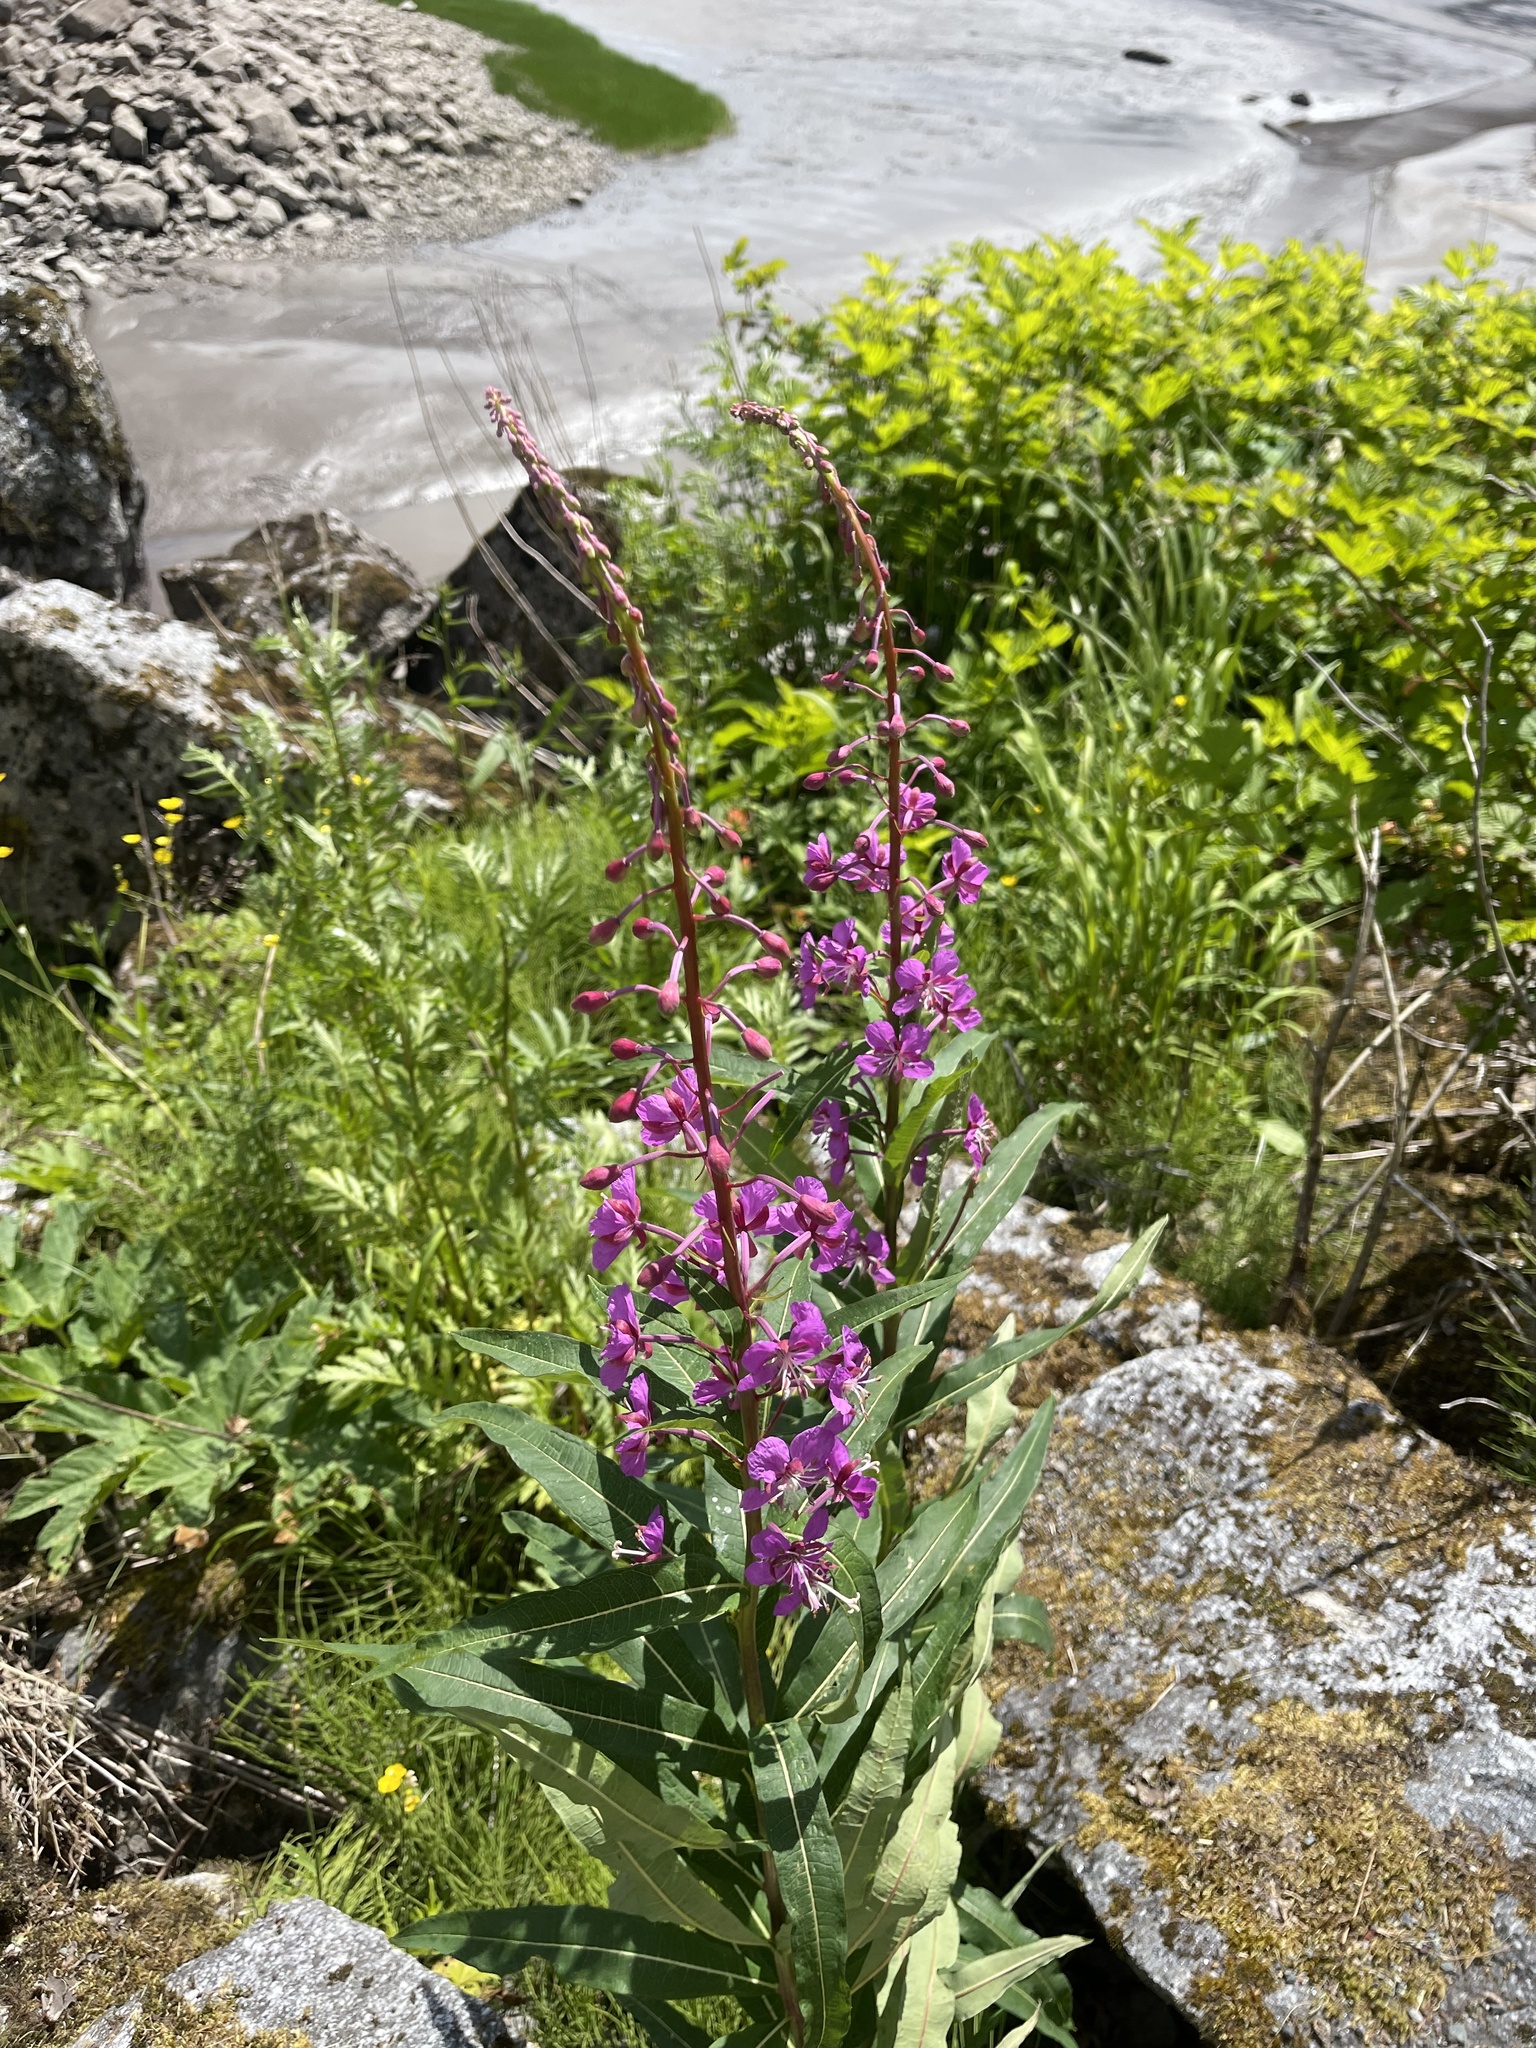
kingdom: Plantae
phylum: Tracheophyta
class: Magnoliopsida
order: Myrtales
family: Onagraceae
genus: Chamaenerion
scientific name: Chamaenerion angustifolium
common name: Fireweed
